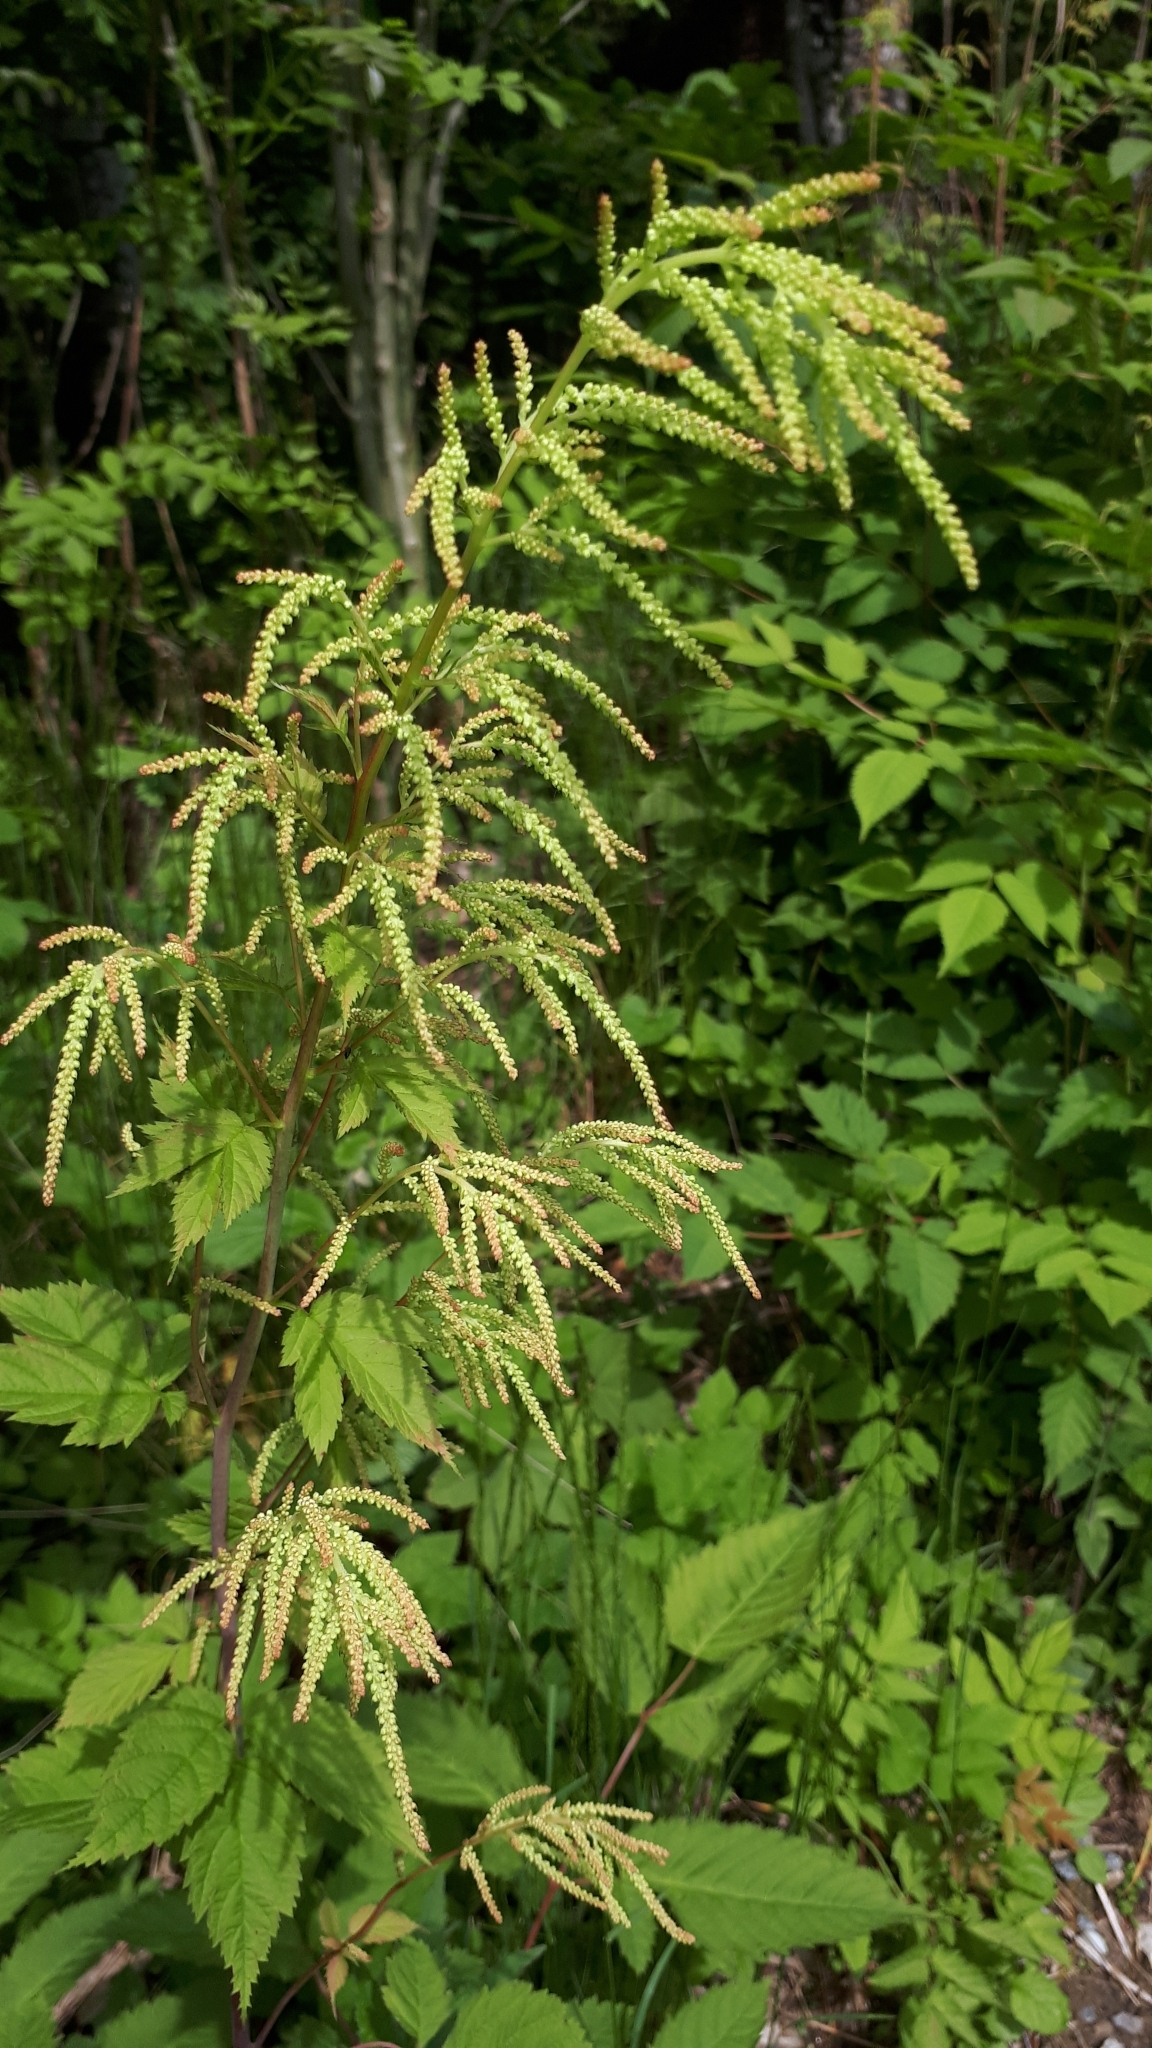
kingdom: Plantae
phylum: Tracheophyta
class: Magnoliopsida
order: Rosales
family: Rosaceae
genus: Aruncus
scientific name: Aruncus dioicus
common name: Buck's-beard
